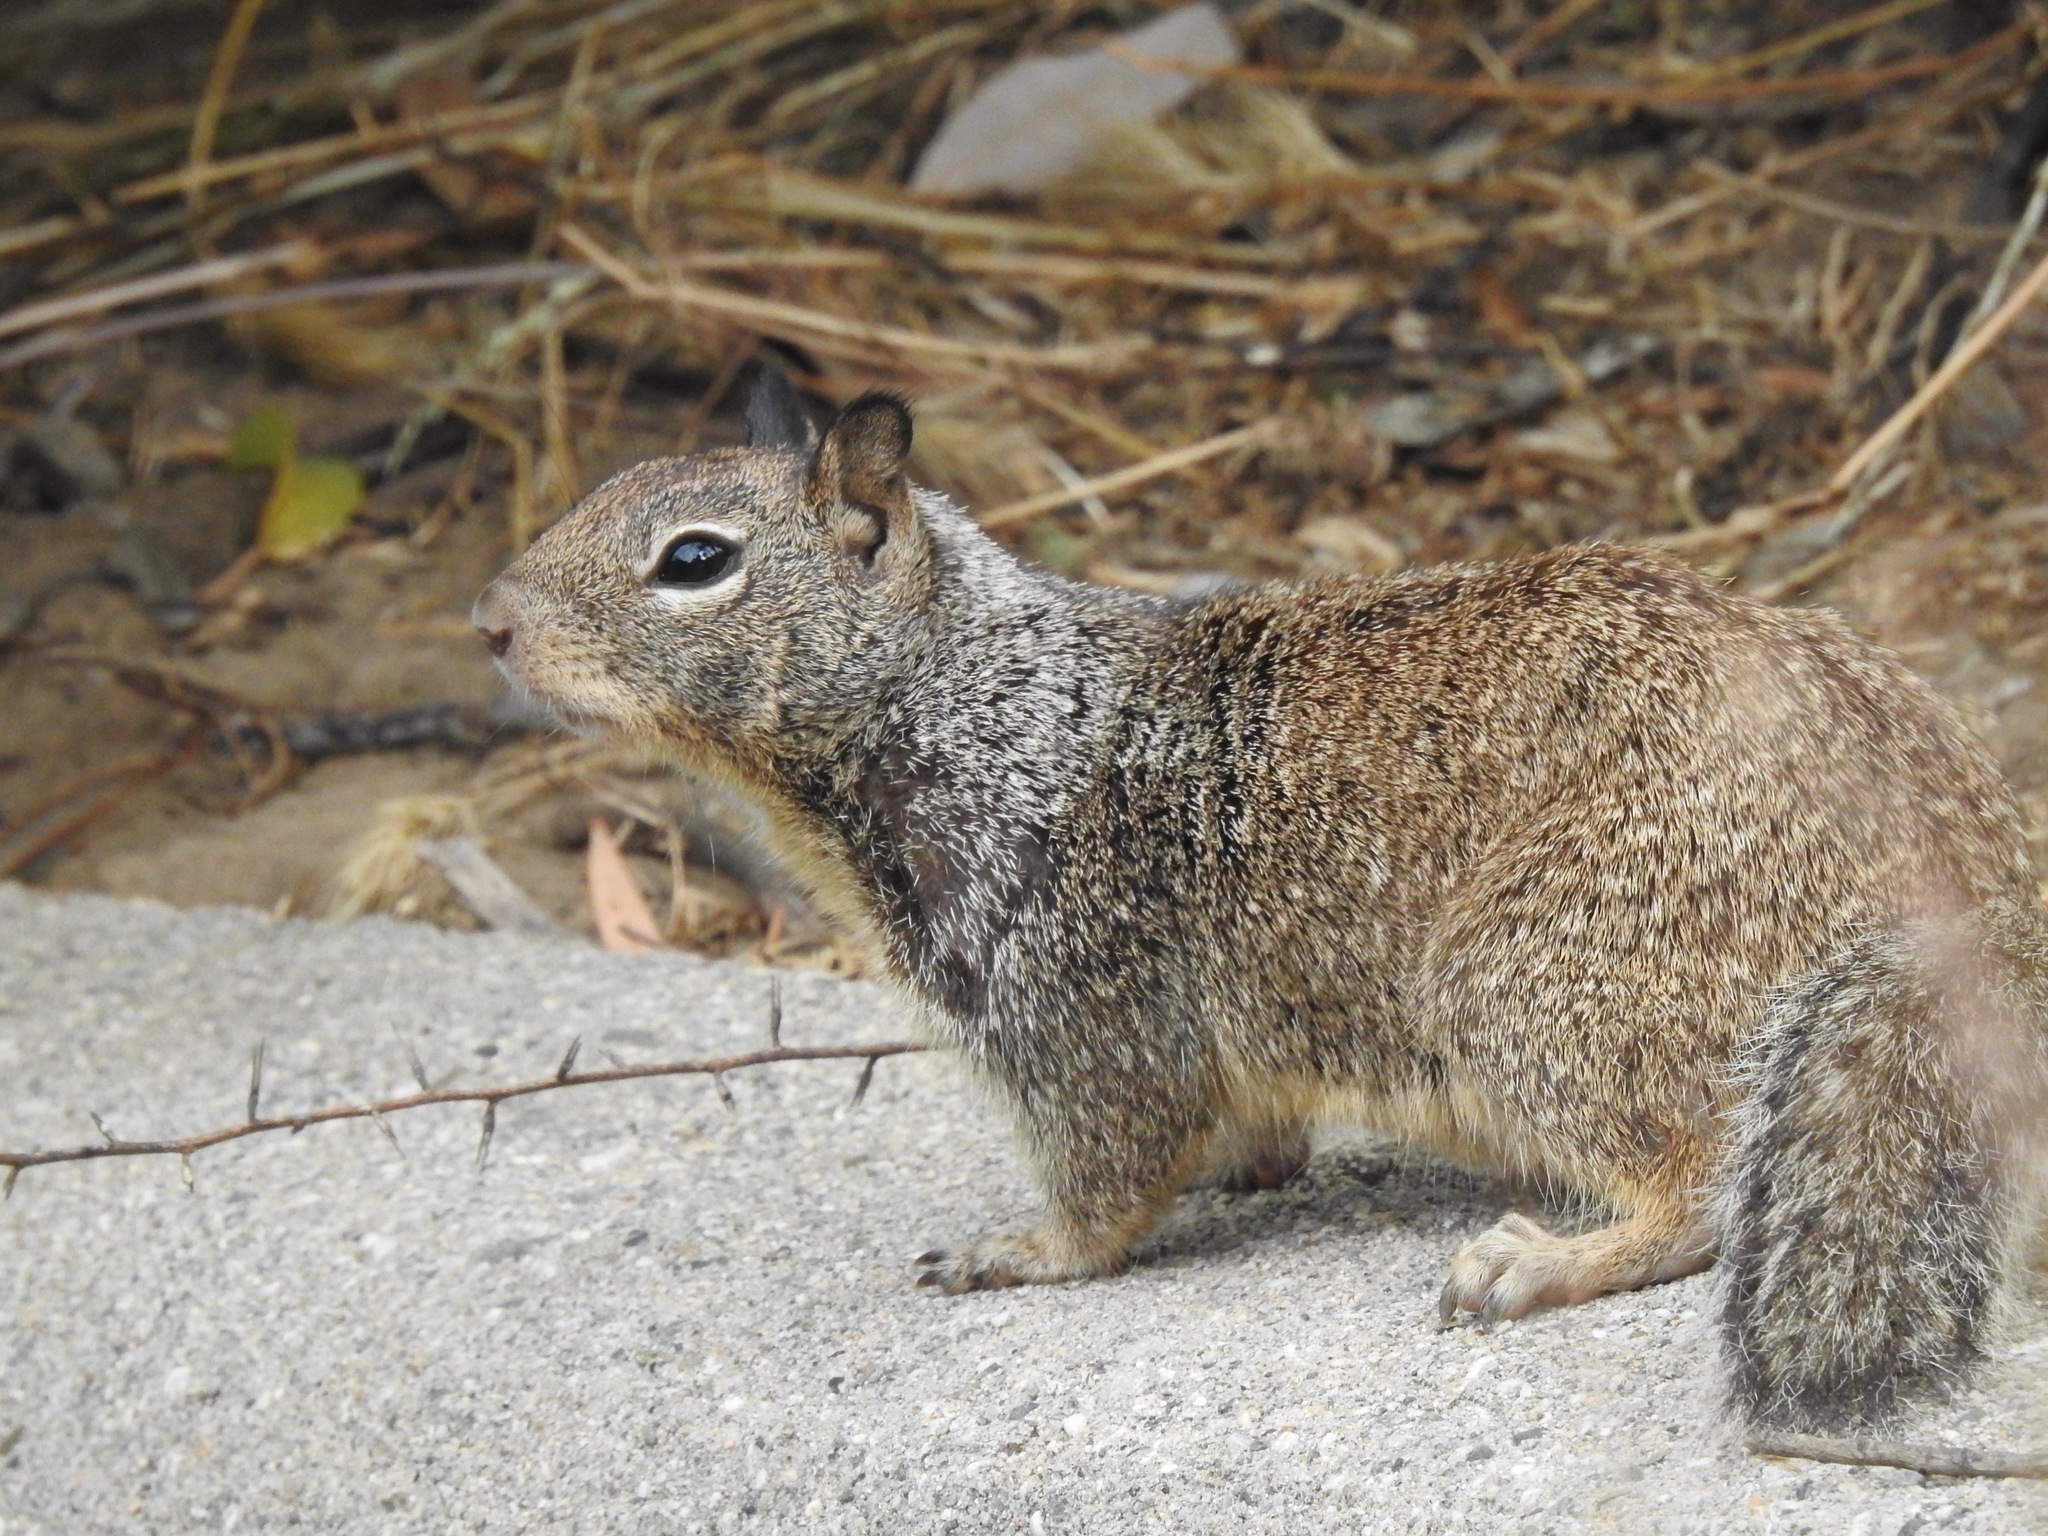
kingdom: Animalia
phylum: Chordata
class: Mammalia
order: Rodentia
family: Sciuridae
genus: Otospermophilus
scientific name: Otospermophilus beecheyi
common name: California ground squirrel
